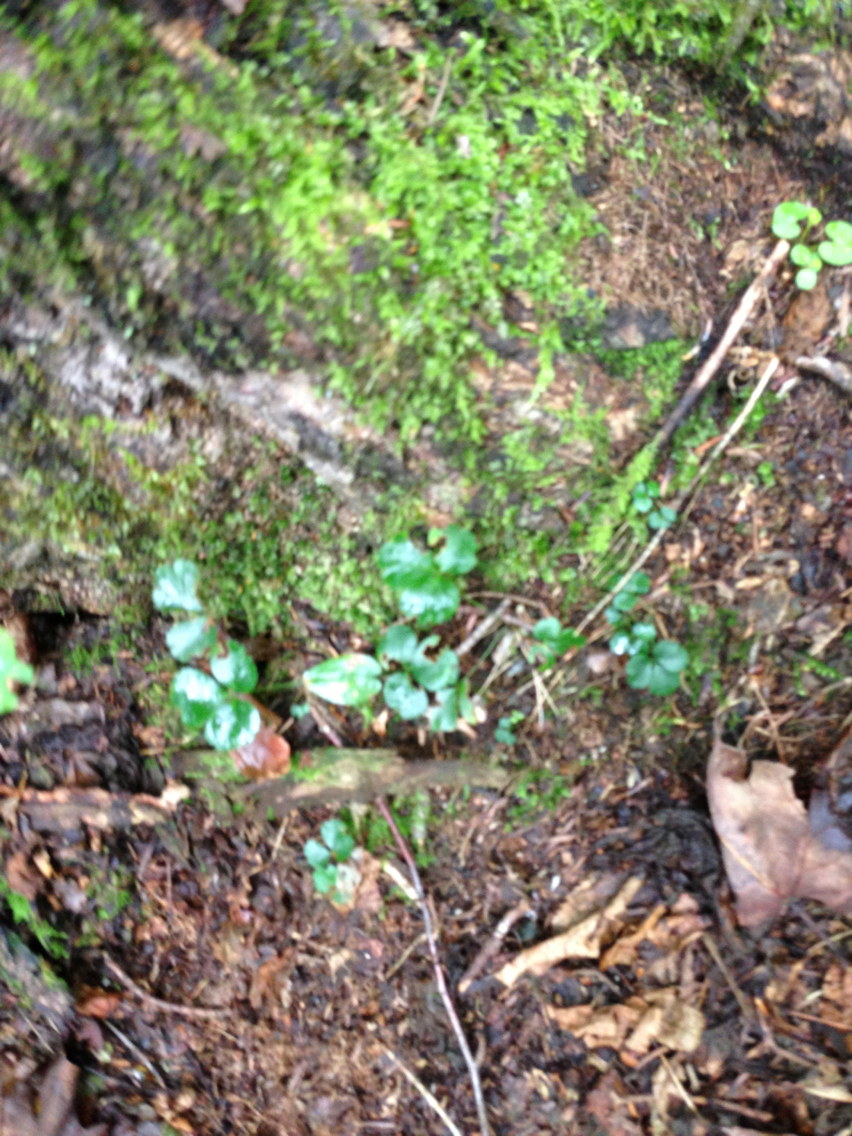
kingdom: Plantae
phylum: Tracheophyta
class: Magnoliopsida
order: Ranunculales
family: Ranunculaceae
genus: Coptis
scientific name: Coptis trifolia
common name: Canker-root
